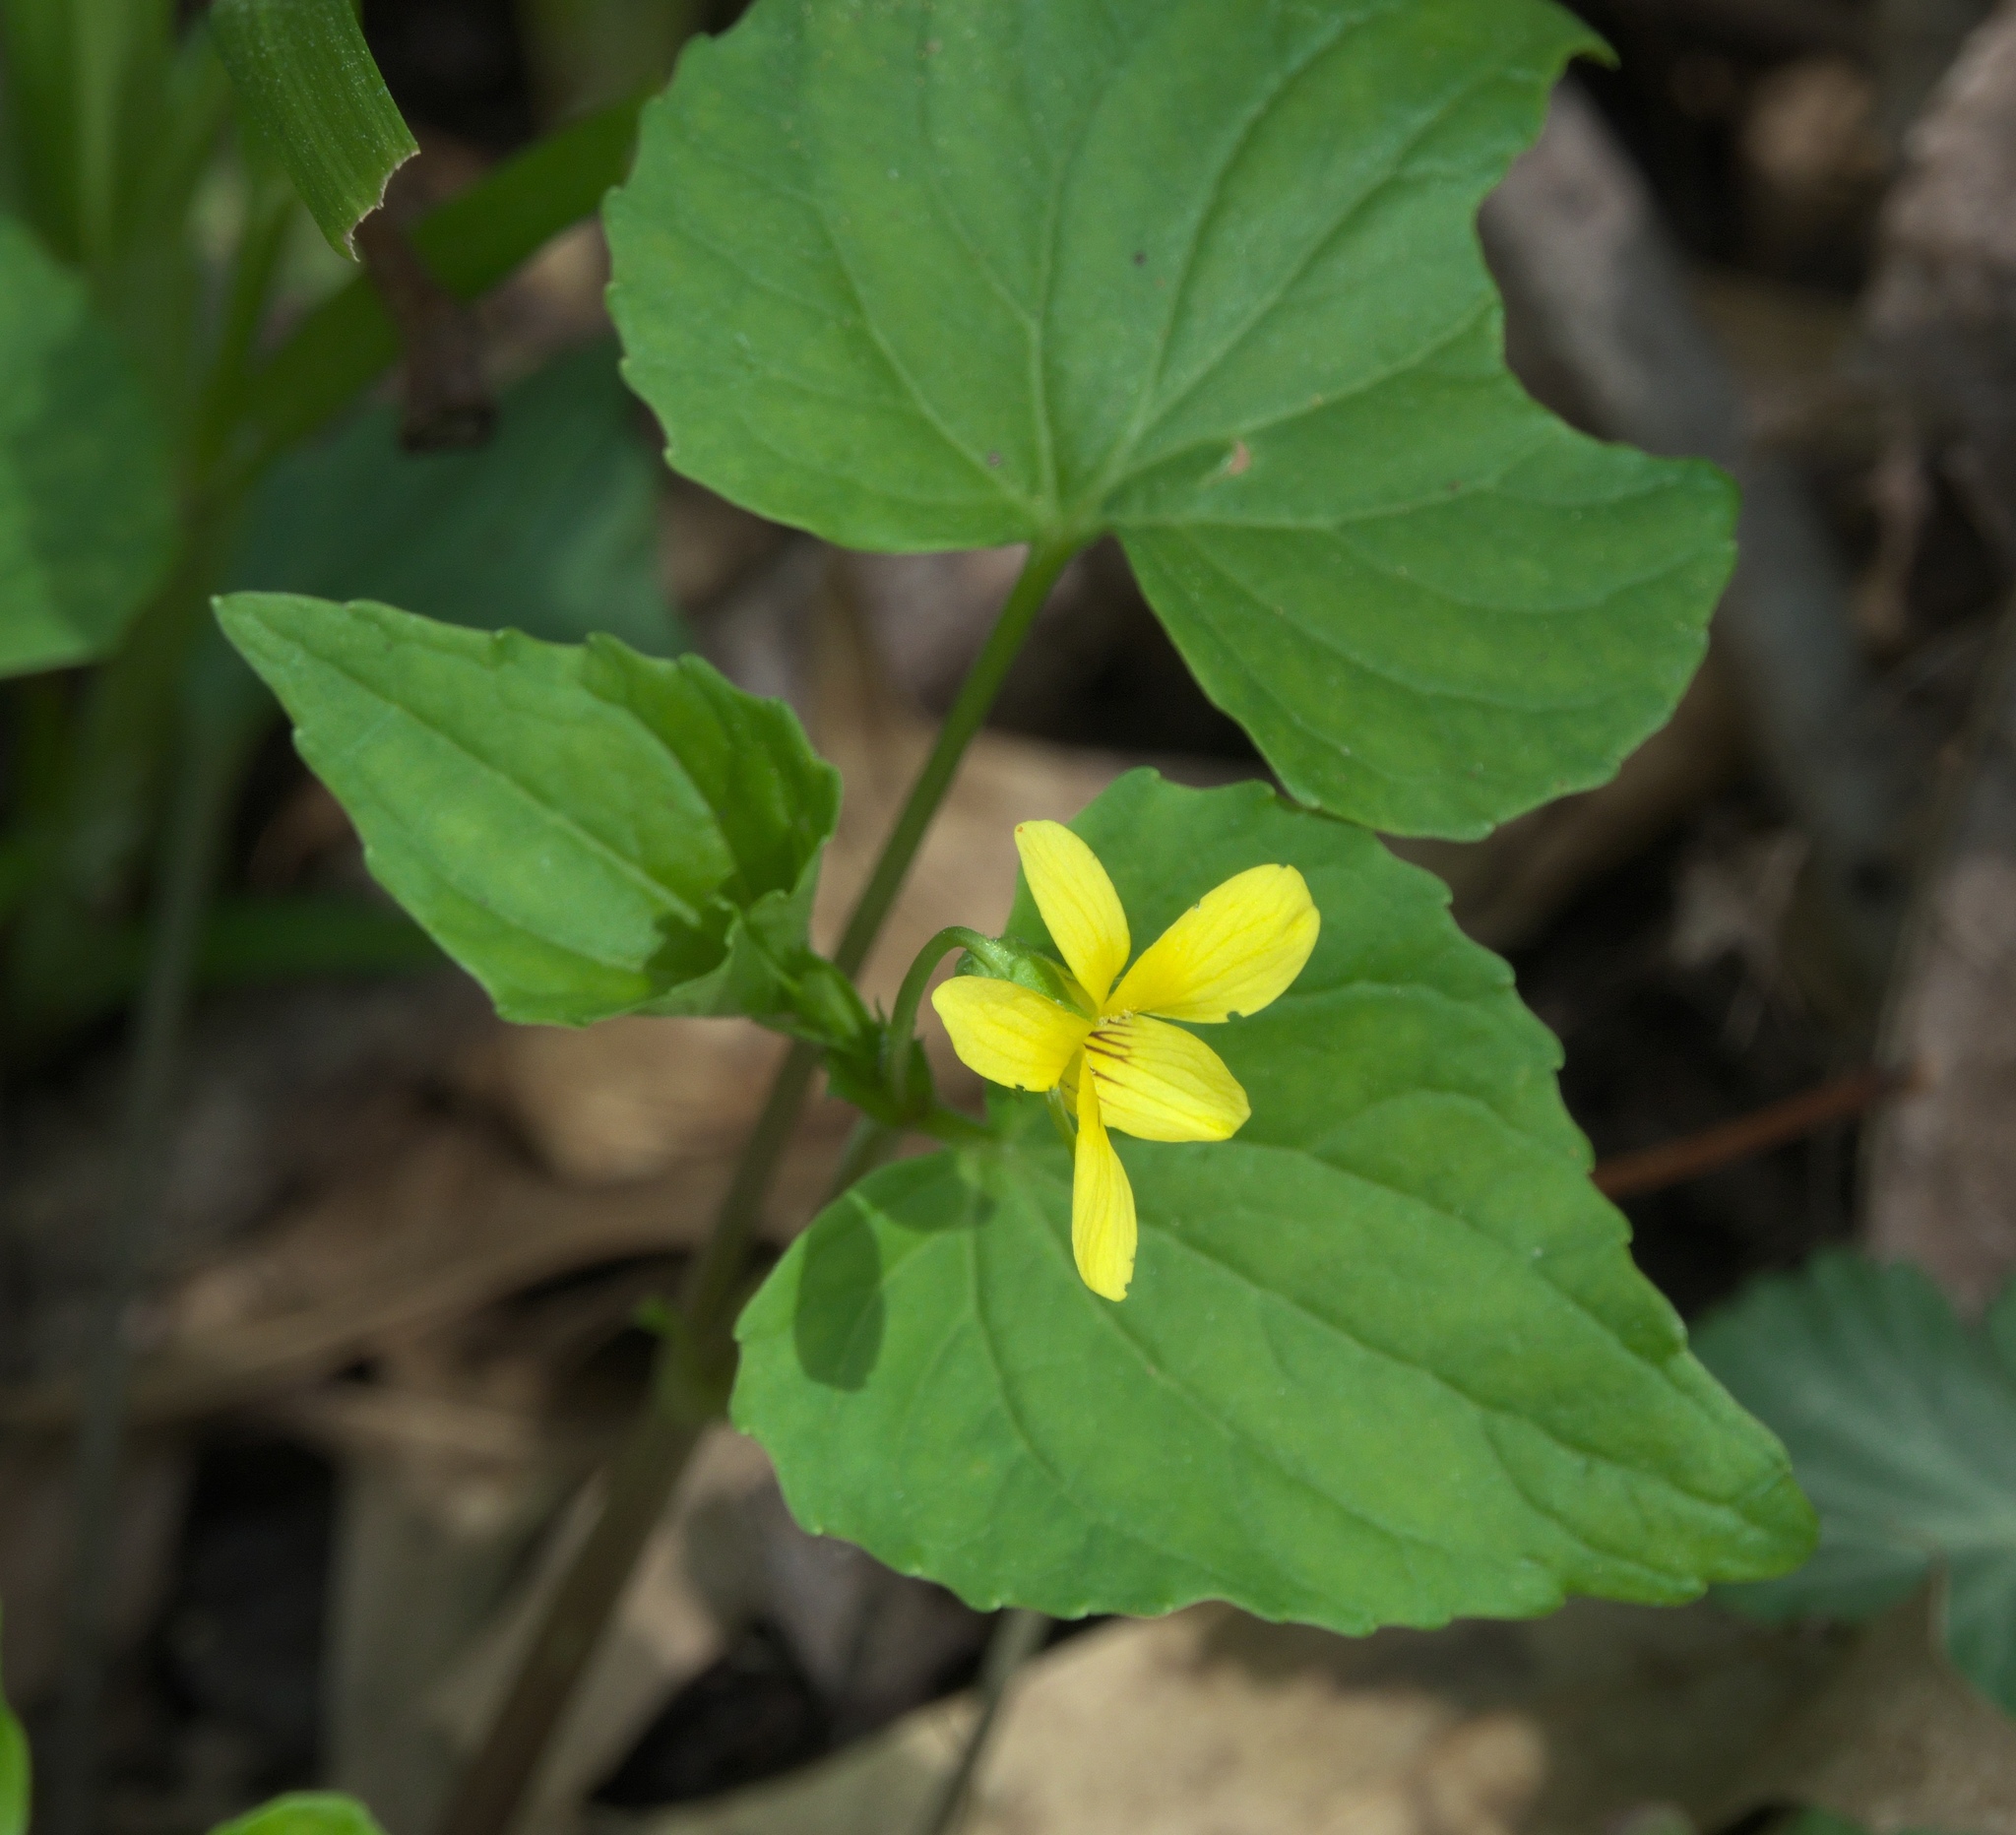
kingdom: Plantae
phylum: Tracheophyta
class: Magnoliopsida
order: Malpighiales
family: Violaceae
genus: Viola
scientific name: Viola eriocarpa
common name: Smooth yellow violet
